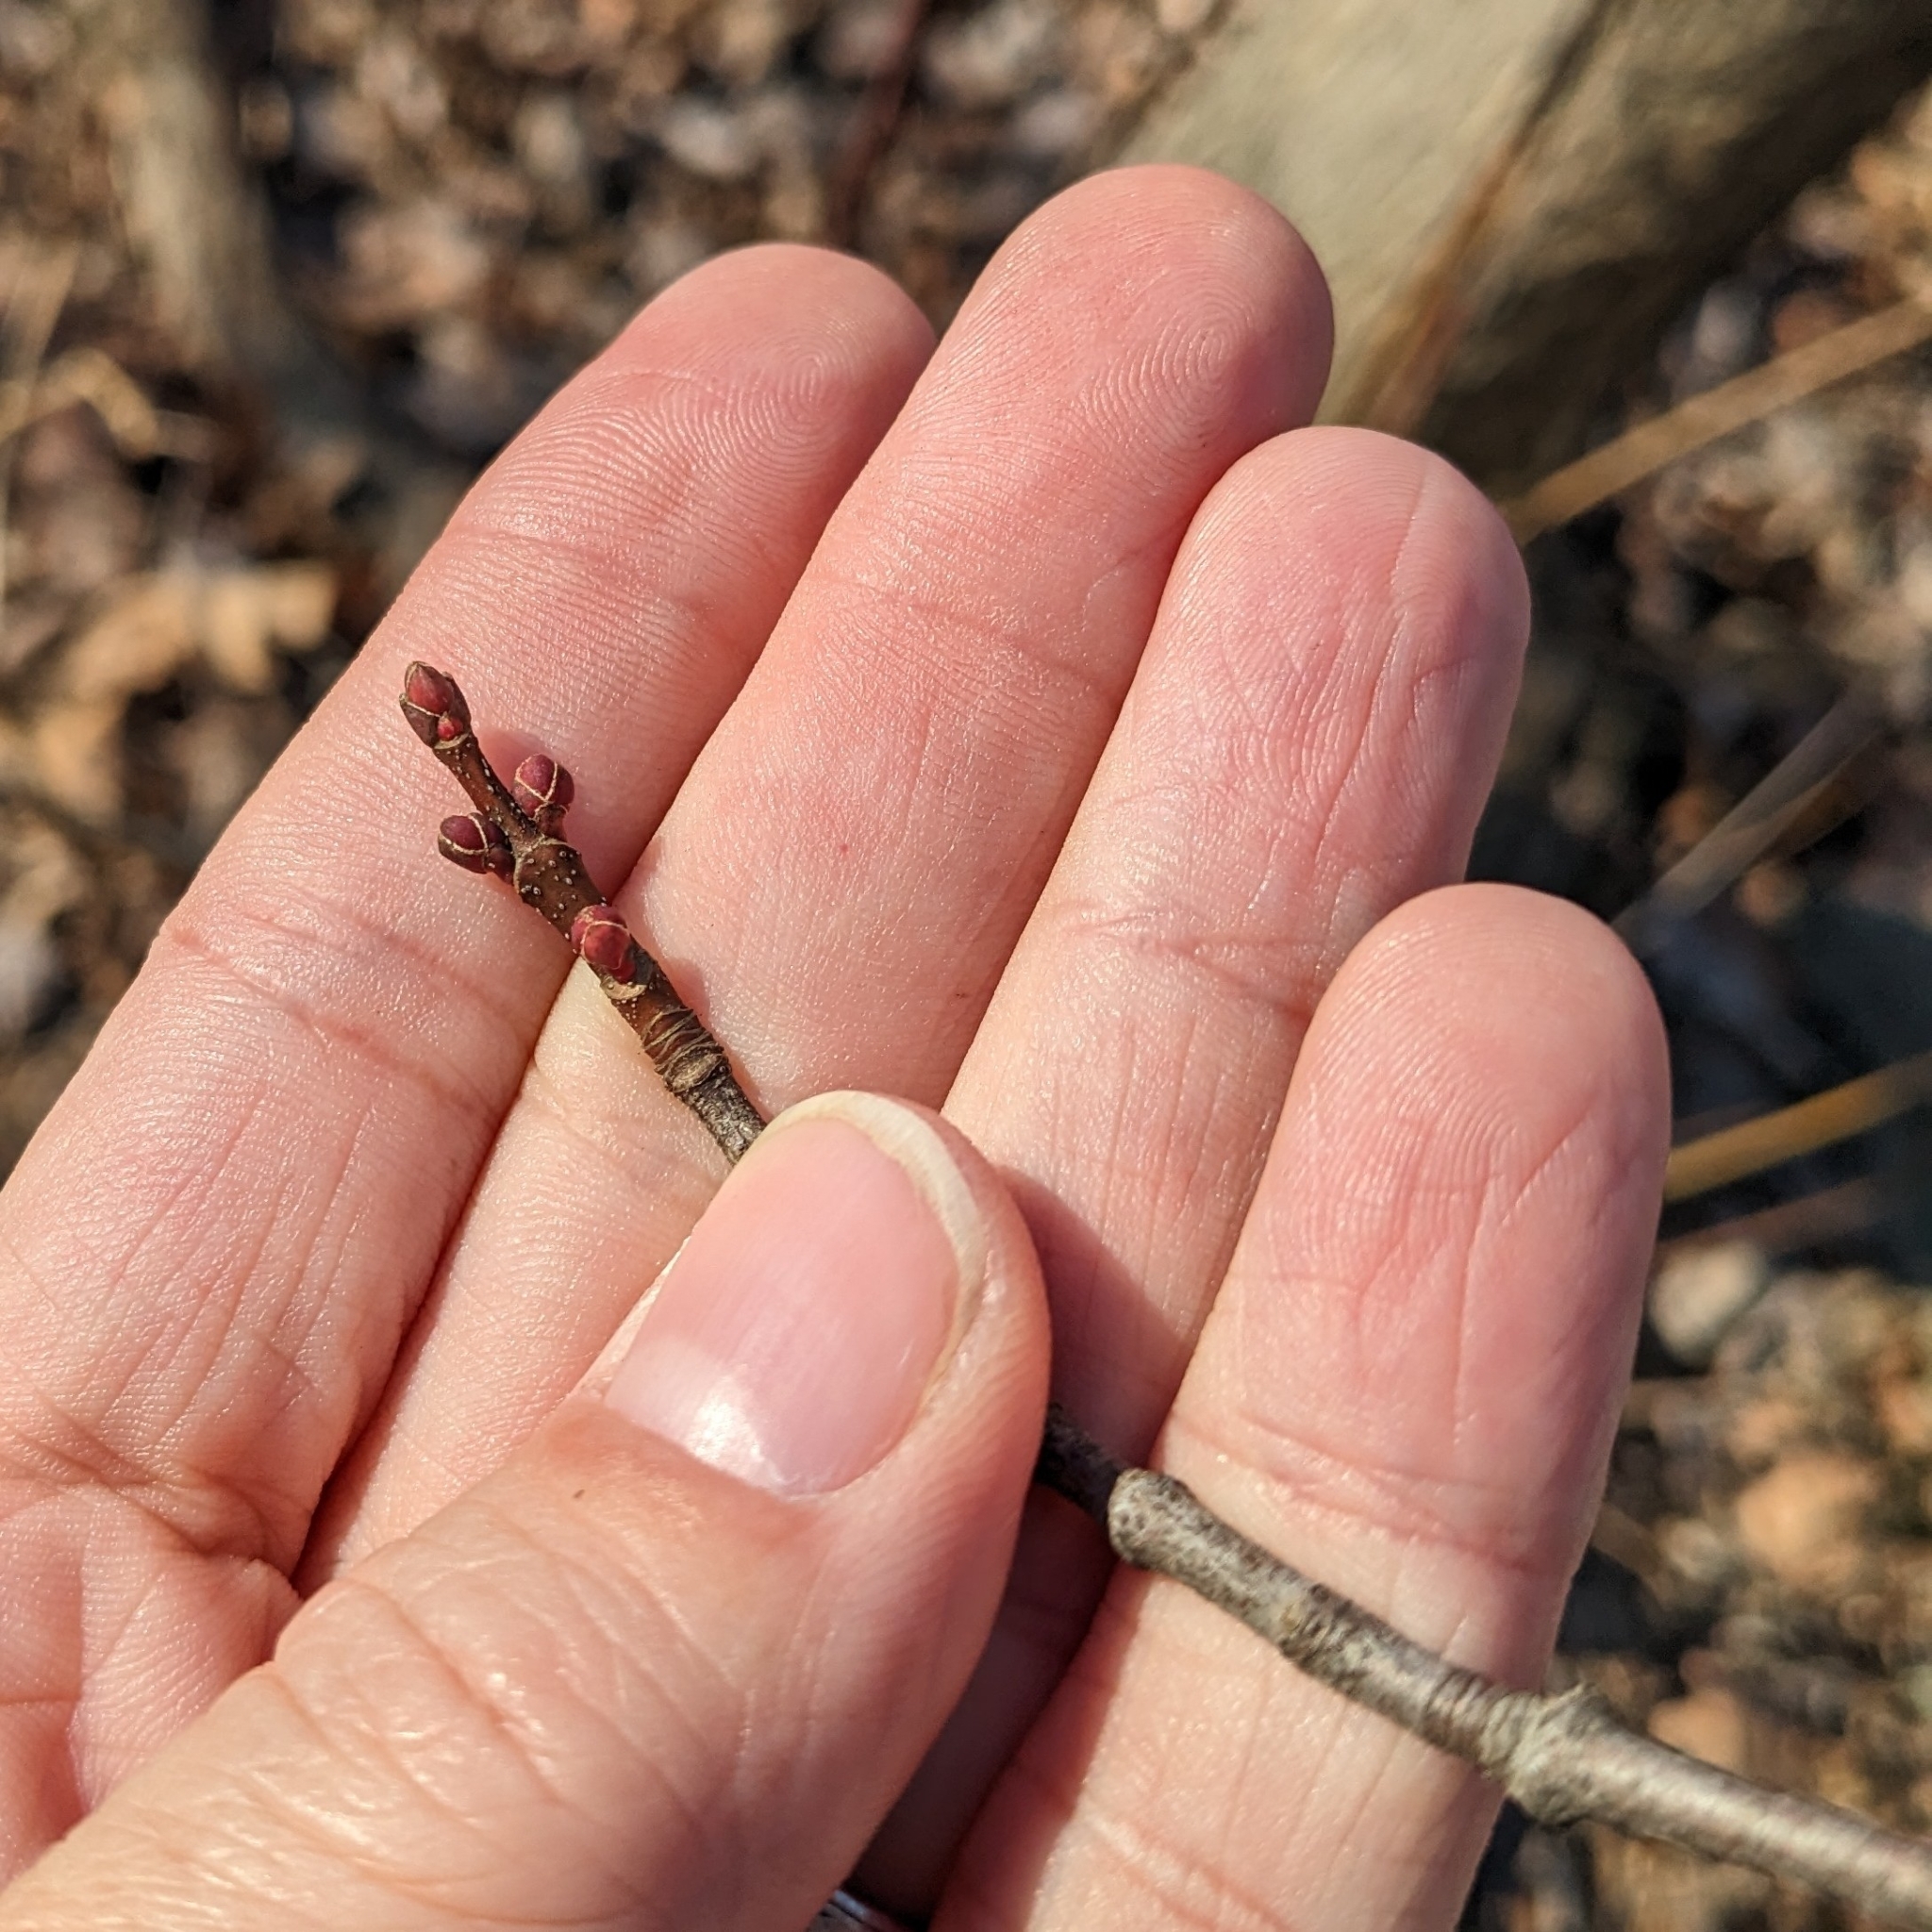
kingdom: Plantae
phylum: Tracheophyta
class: Magnoliopsida
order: Sapindales
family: Sapindaceae
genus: Acer
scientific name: Acer rubrum
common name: Red maple
